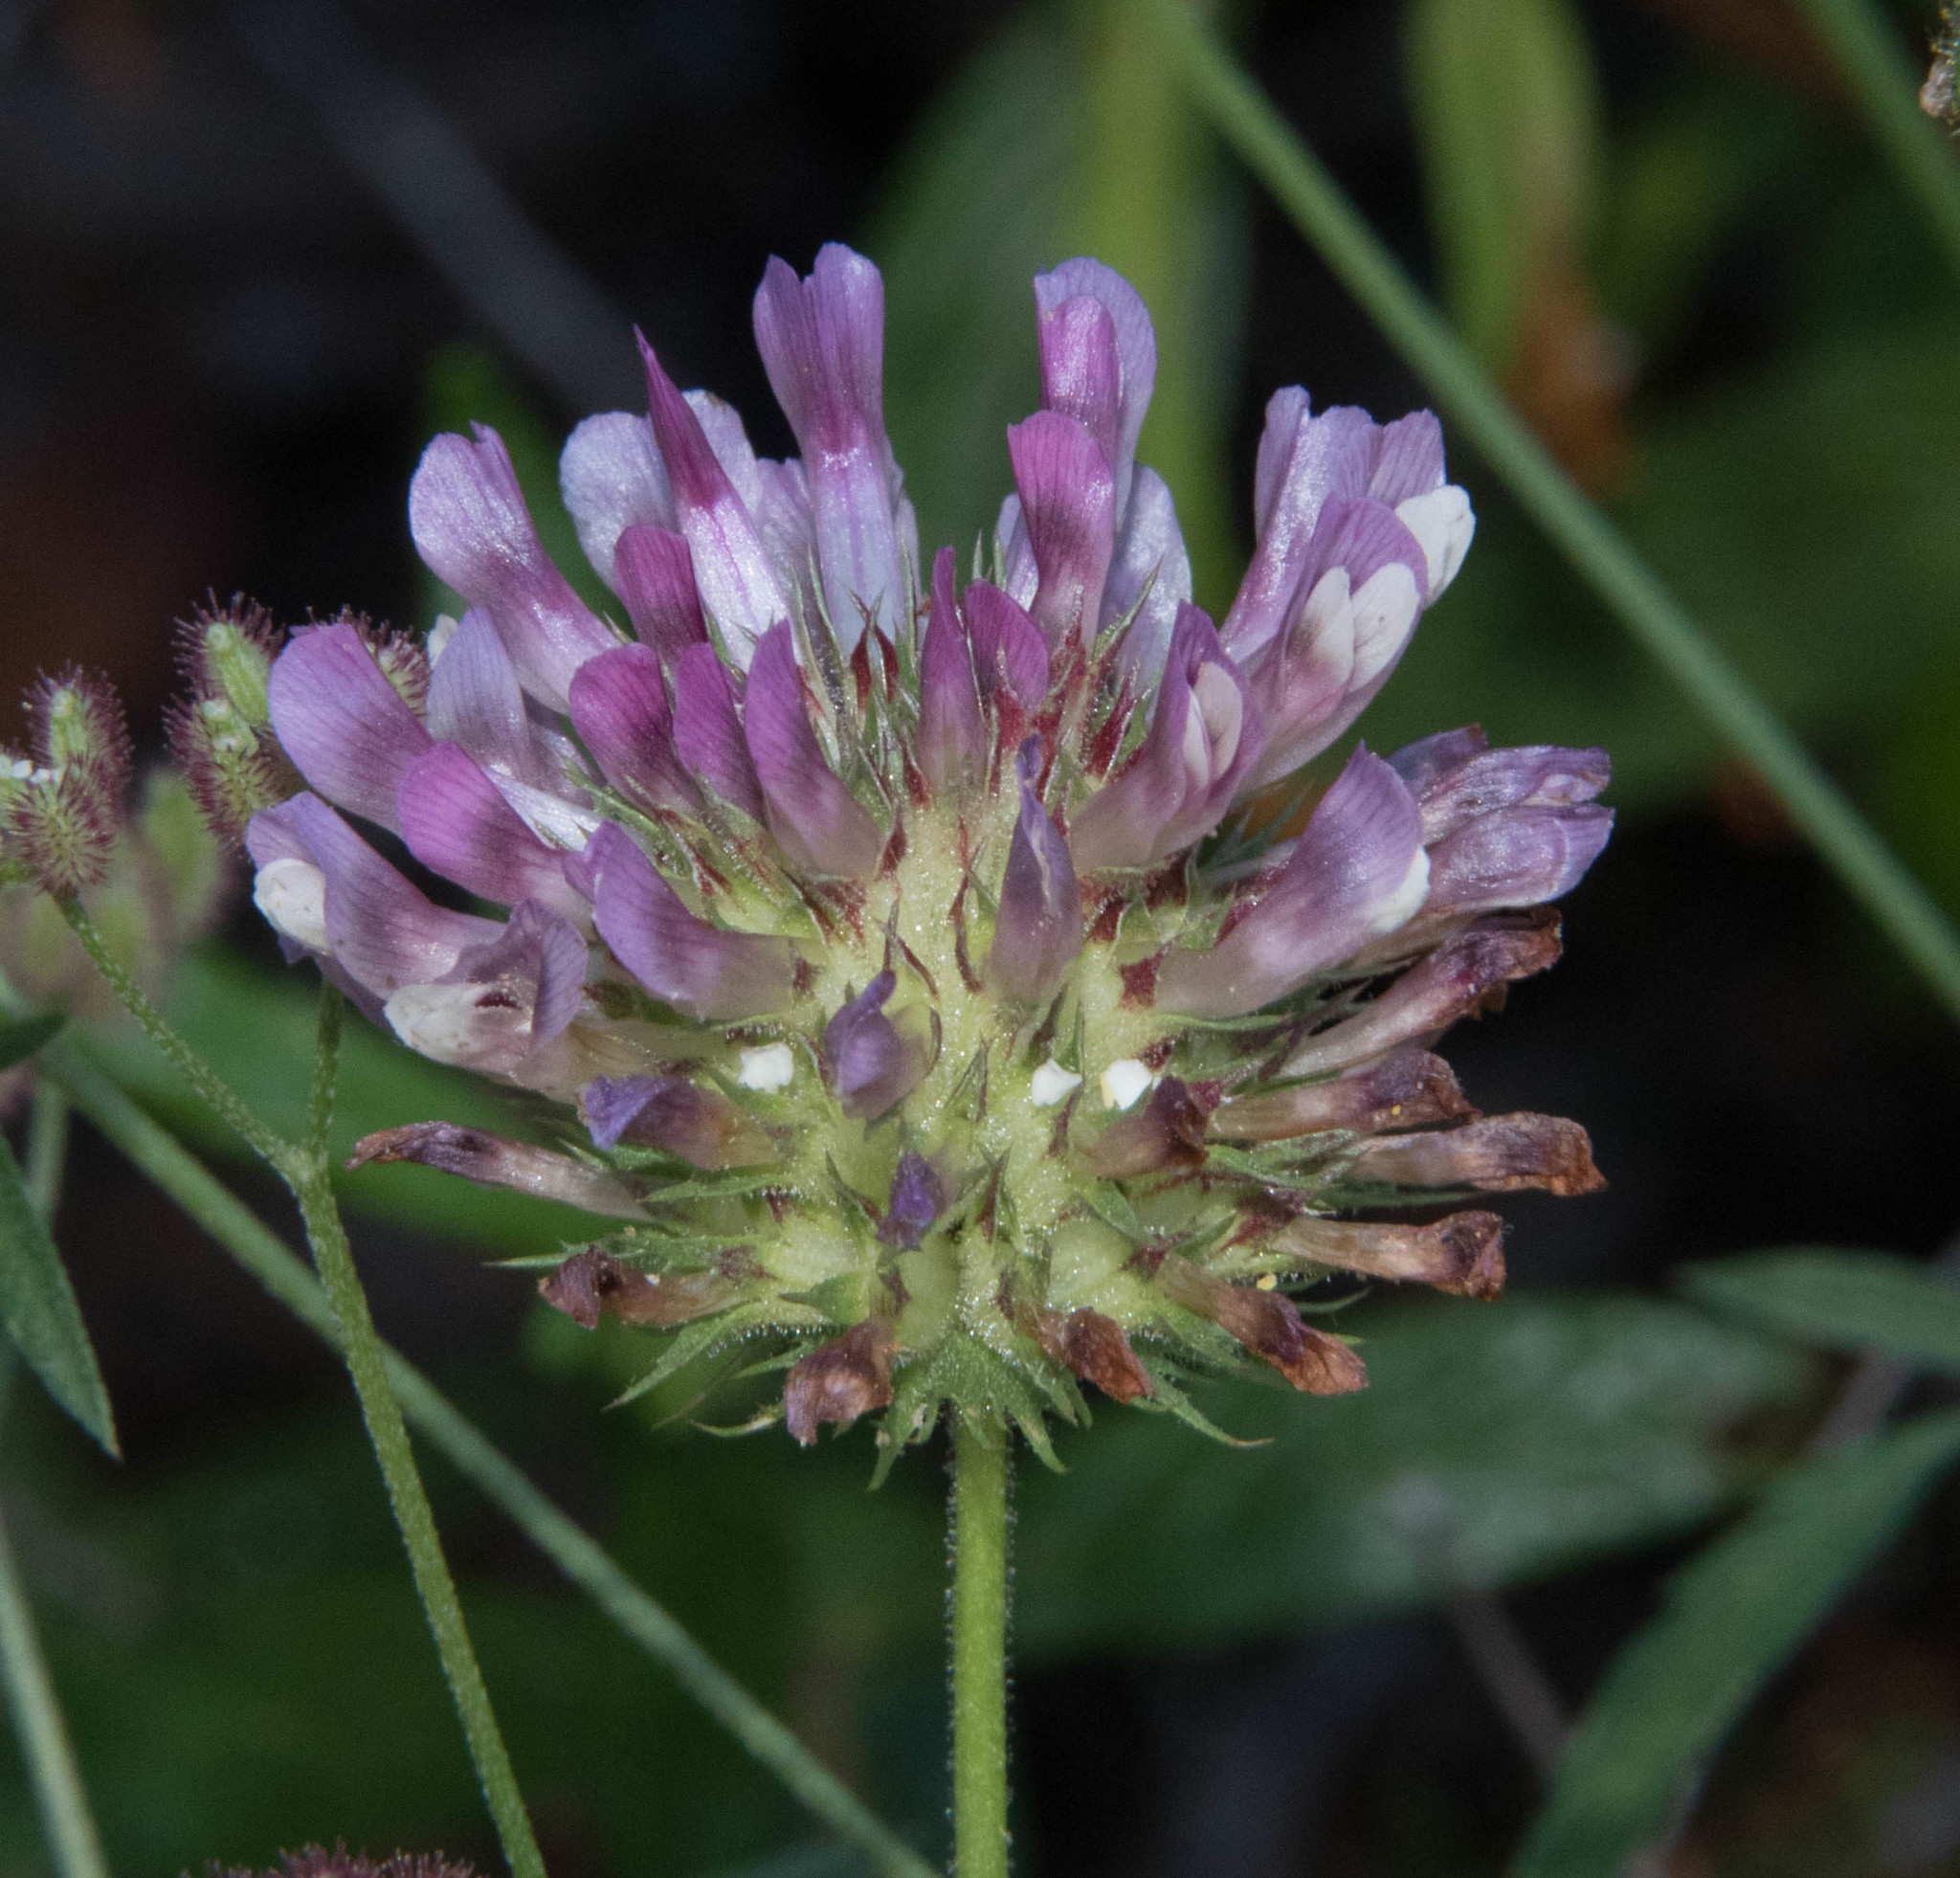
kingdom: Plantae
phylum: Tracheophyta
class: Magnoliopsida
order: Fabales
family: Fabaceae
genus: Trifolium
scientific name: Trifolium obtusiflorum
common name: Clammy clover
